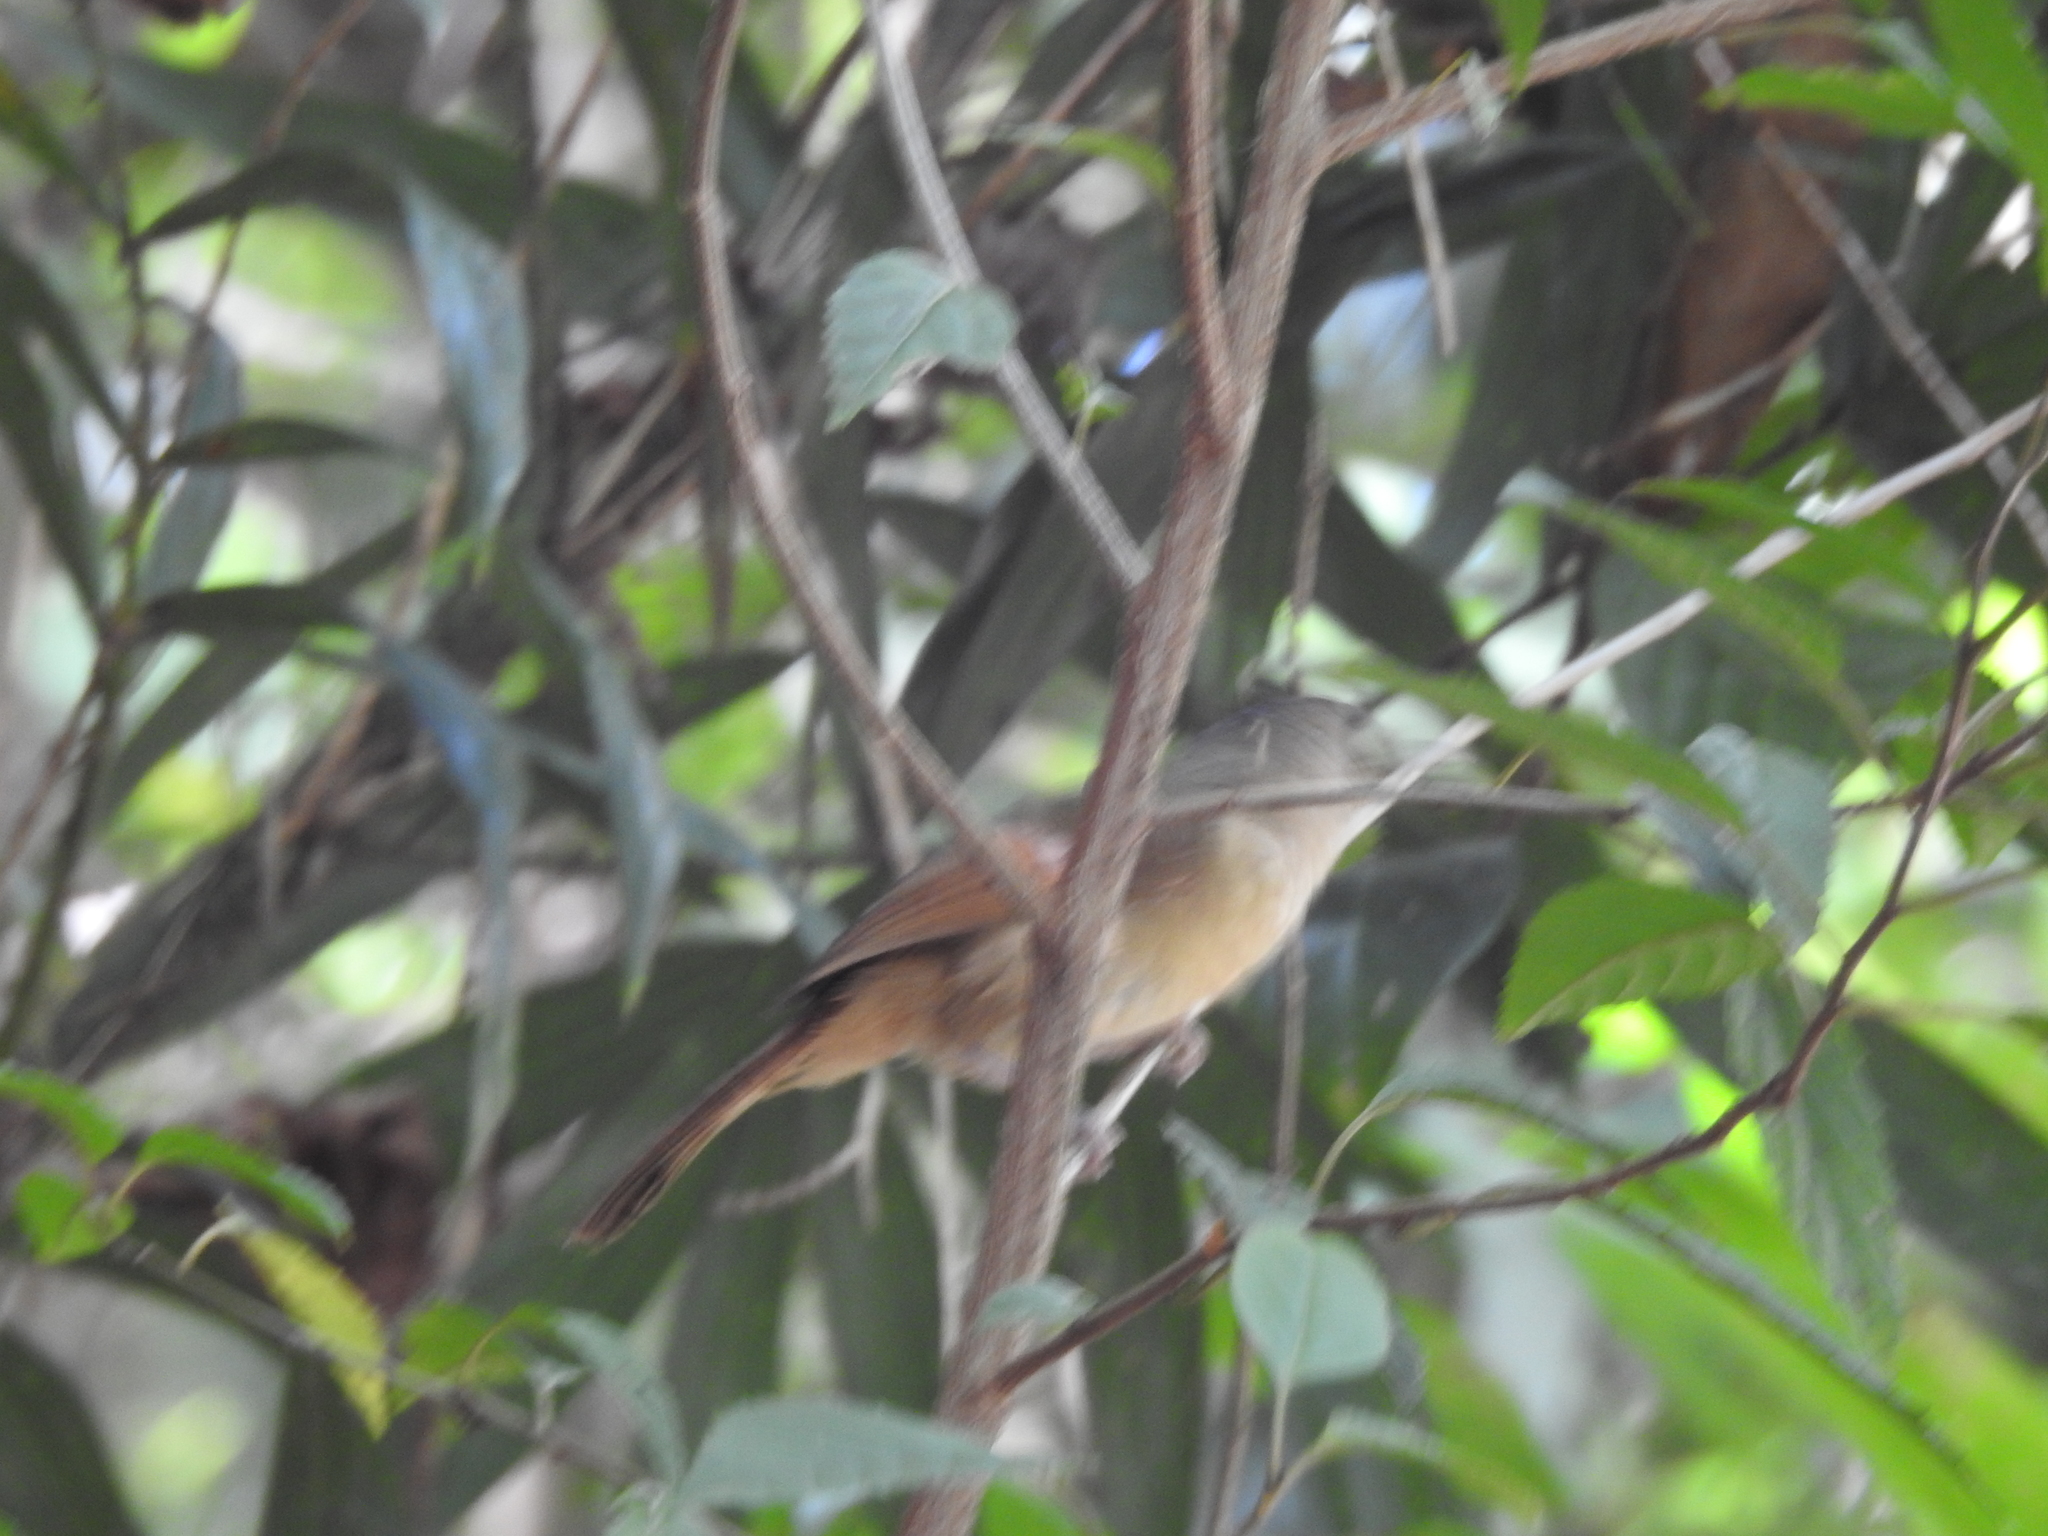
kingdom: Animalia
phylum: Chordata
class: Aves
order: Passeriformes
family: Pellorneidae
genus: Alcippe
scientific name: Alcippe poioicephala
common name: Brown-cheeked fulvetta
